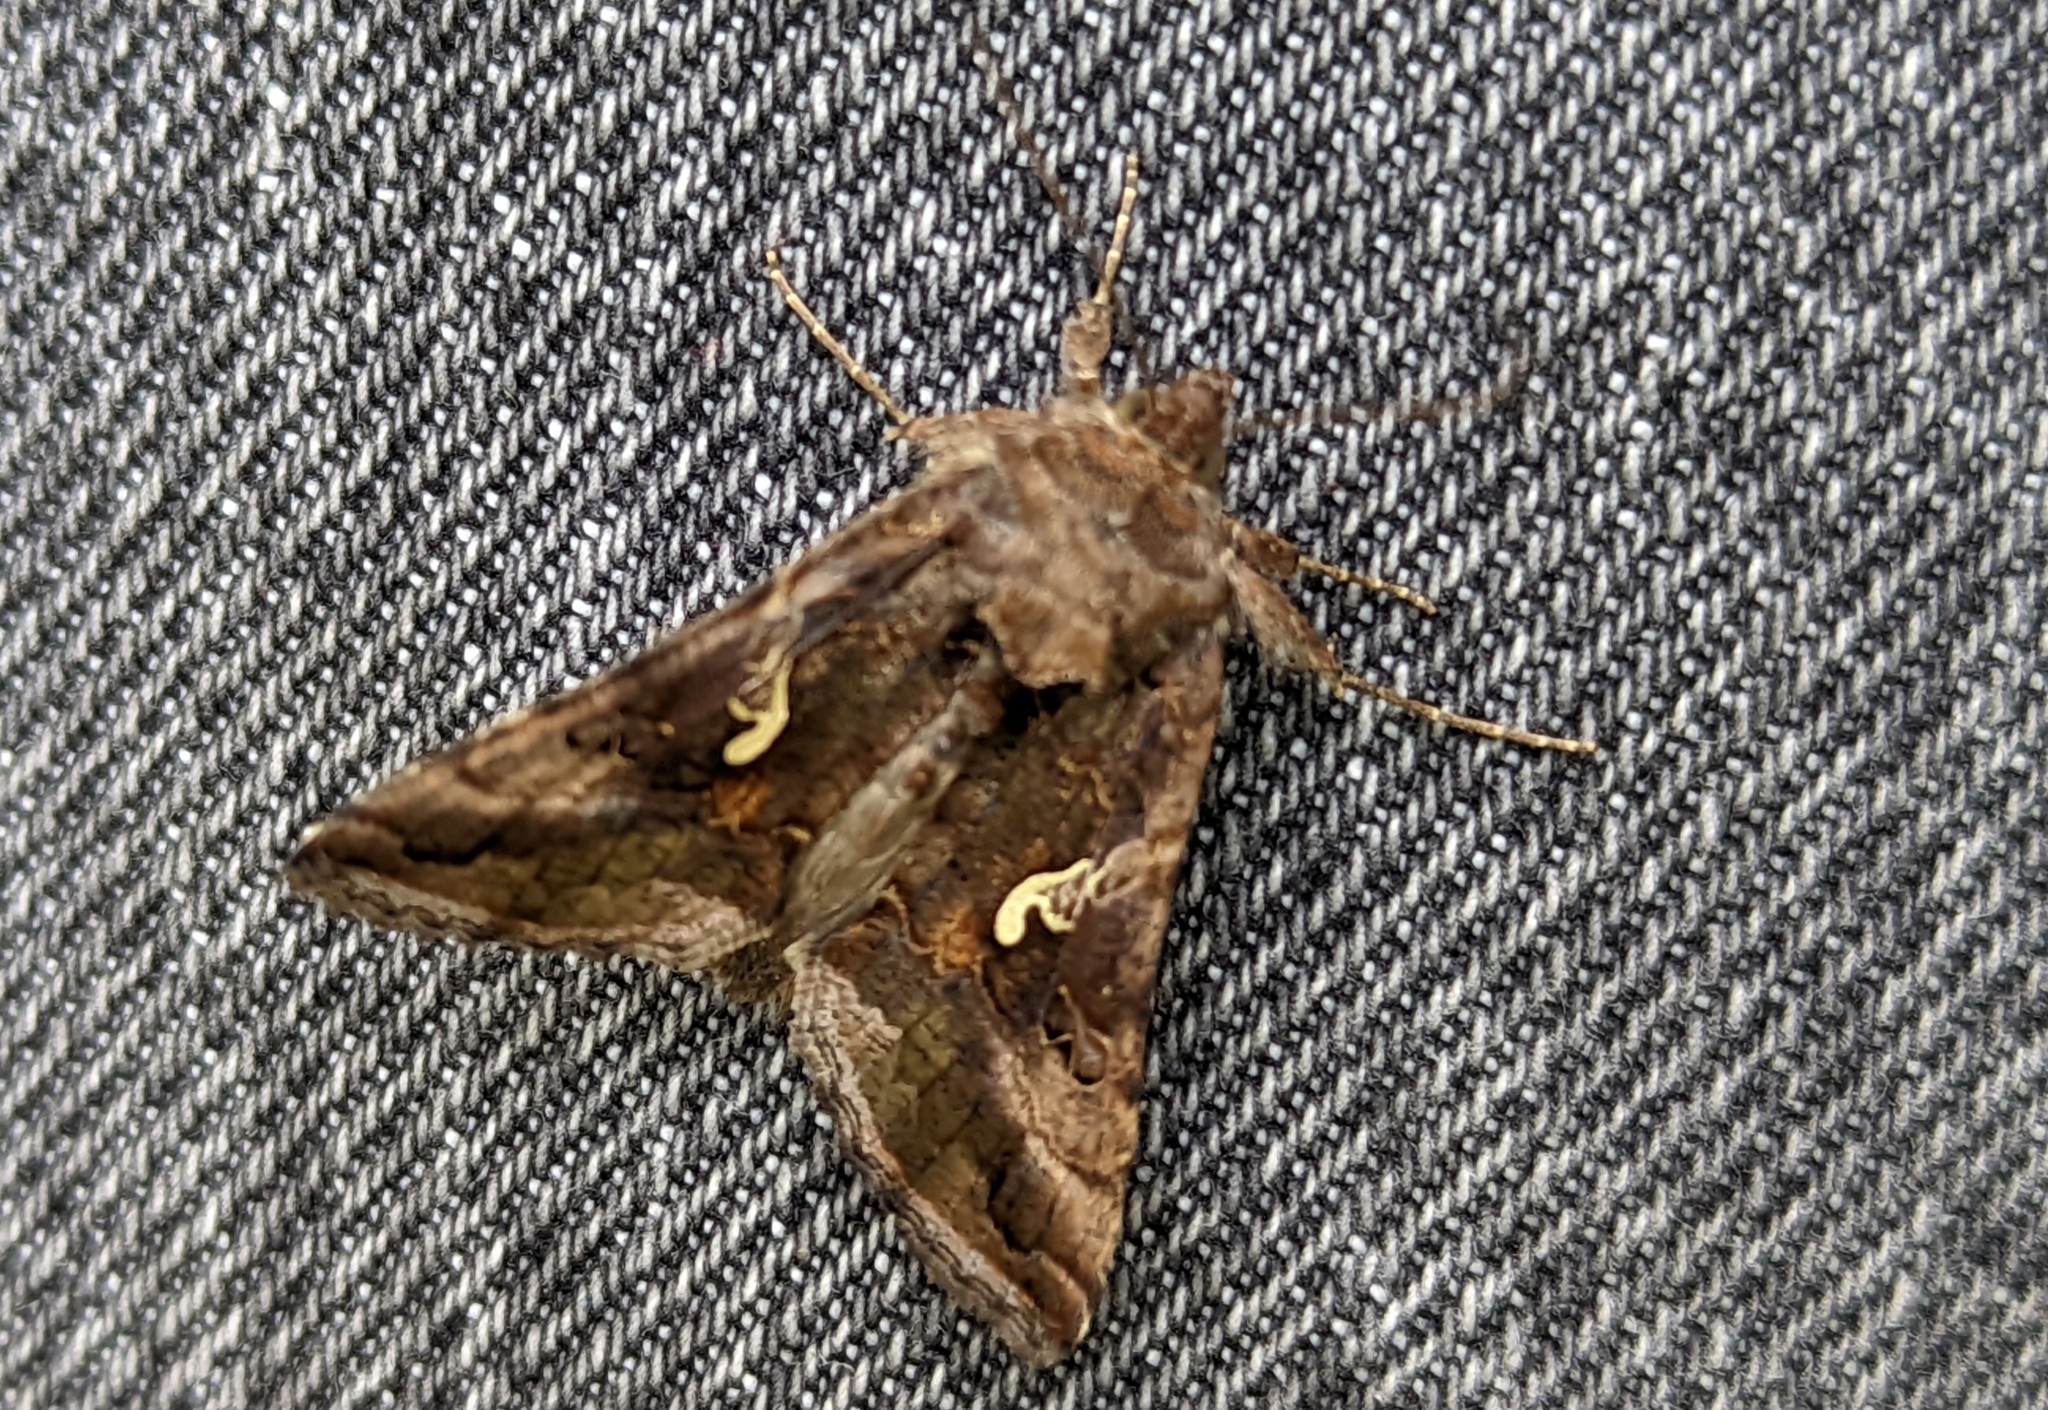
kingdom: Animalia
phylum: Arthropoda
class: Insecta
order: Lepidoptera
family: Noctuidae
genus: Autographa
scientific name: Autographa gamma
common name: Silver y
